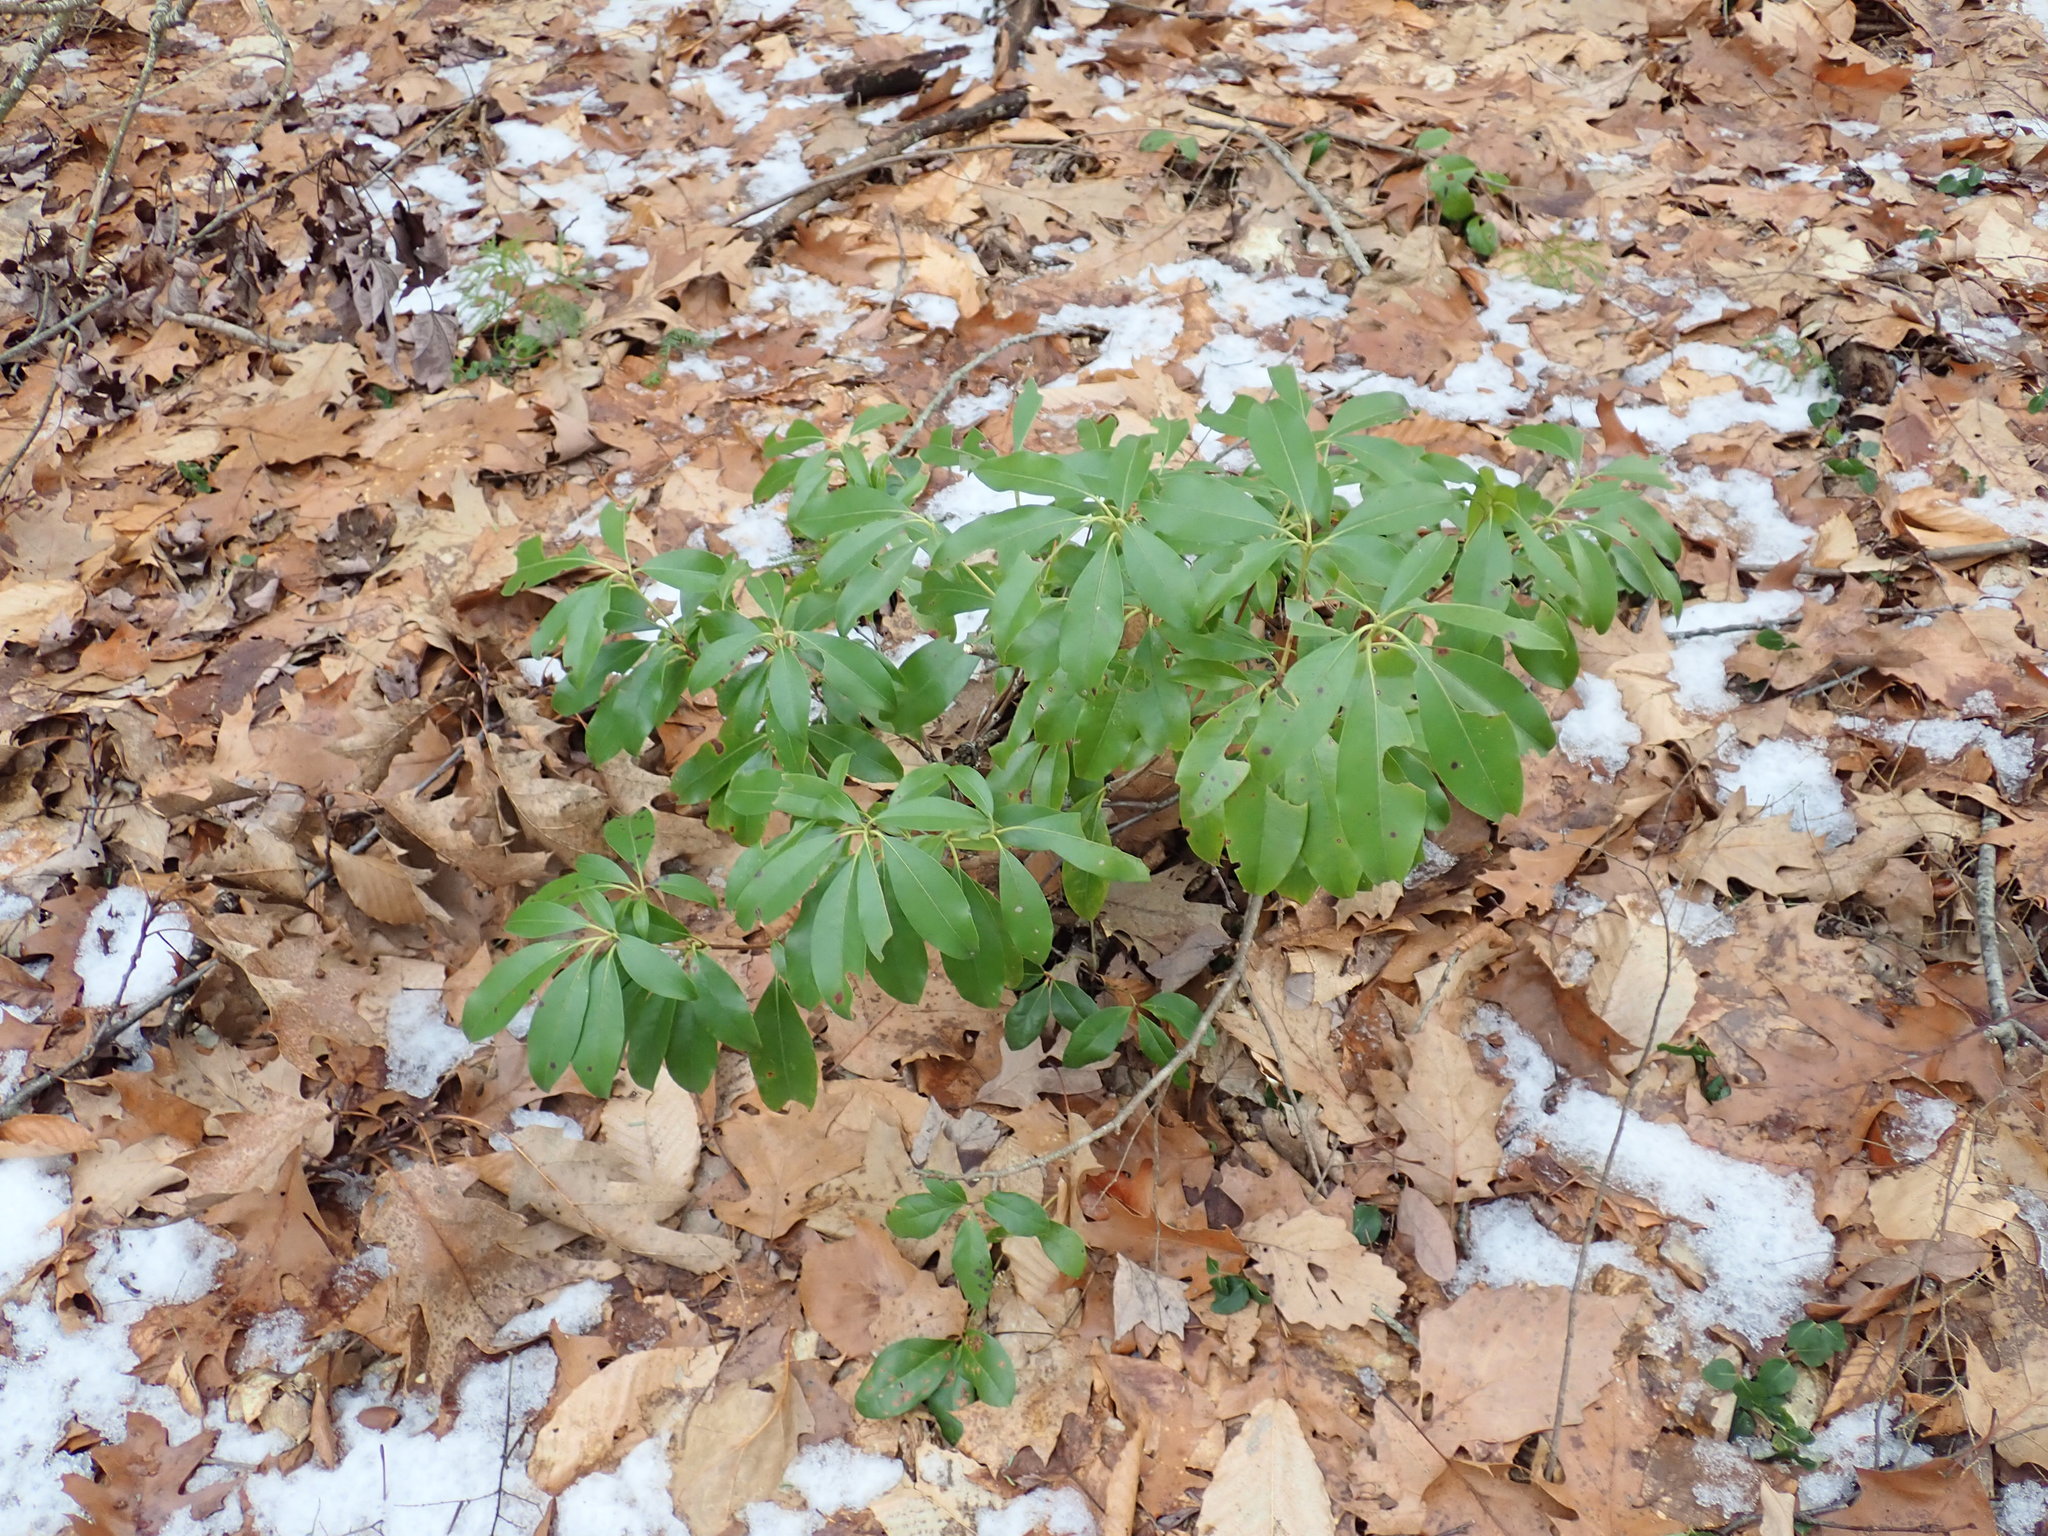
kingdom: Plantae
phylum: Tracheophyta
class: Magnoliopsida
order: Ericales
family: Ericaceae
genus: Kalmia
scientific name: Kalmia latifolia
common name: Mountain-laurel
